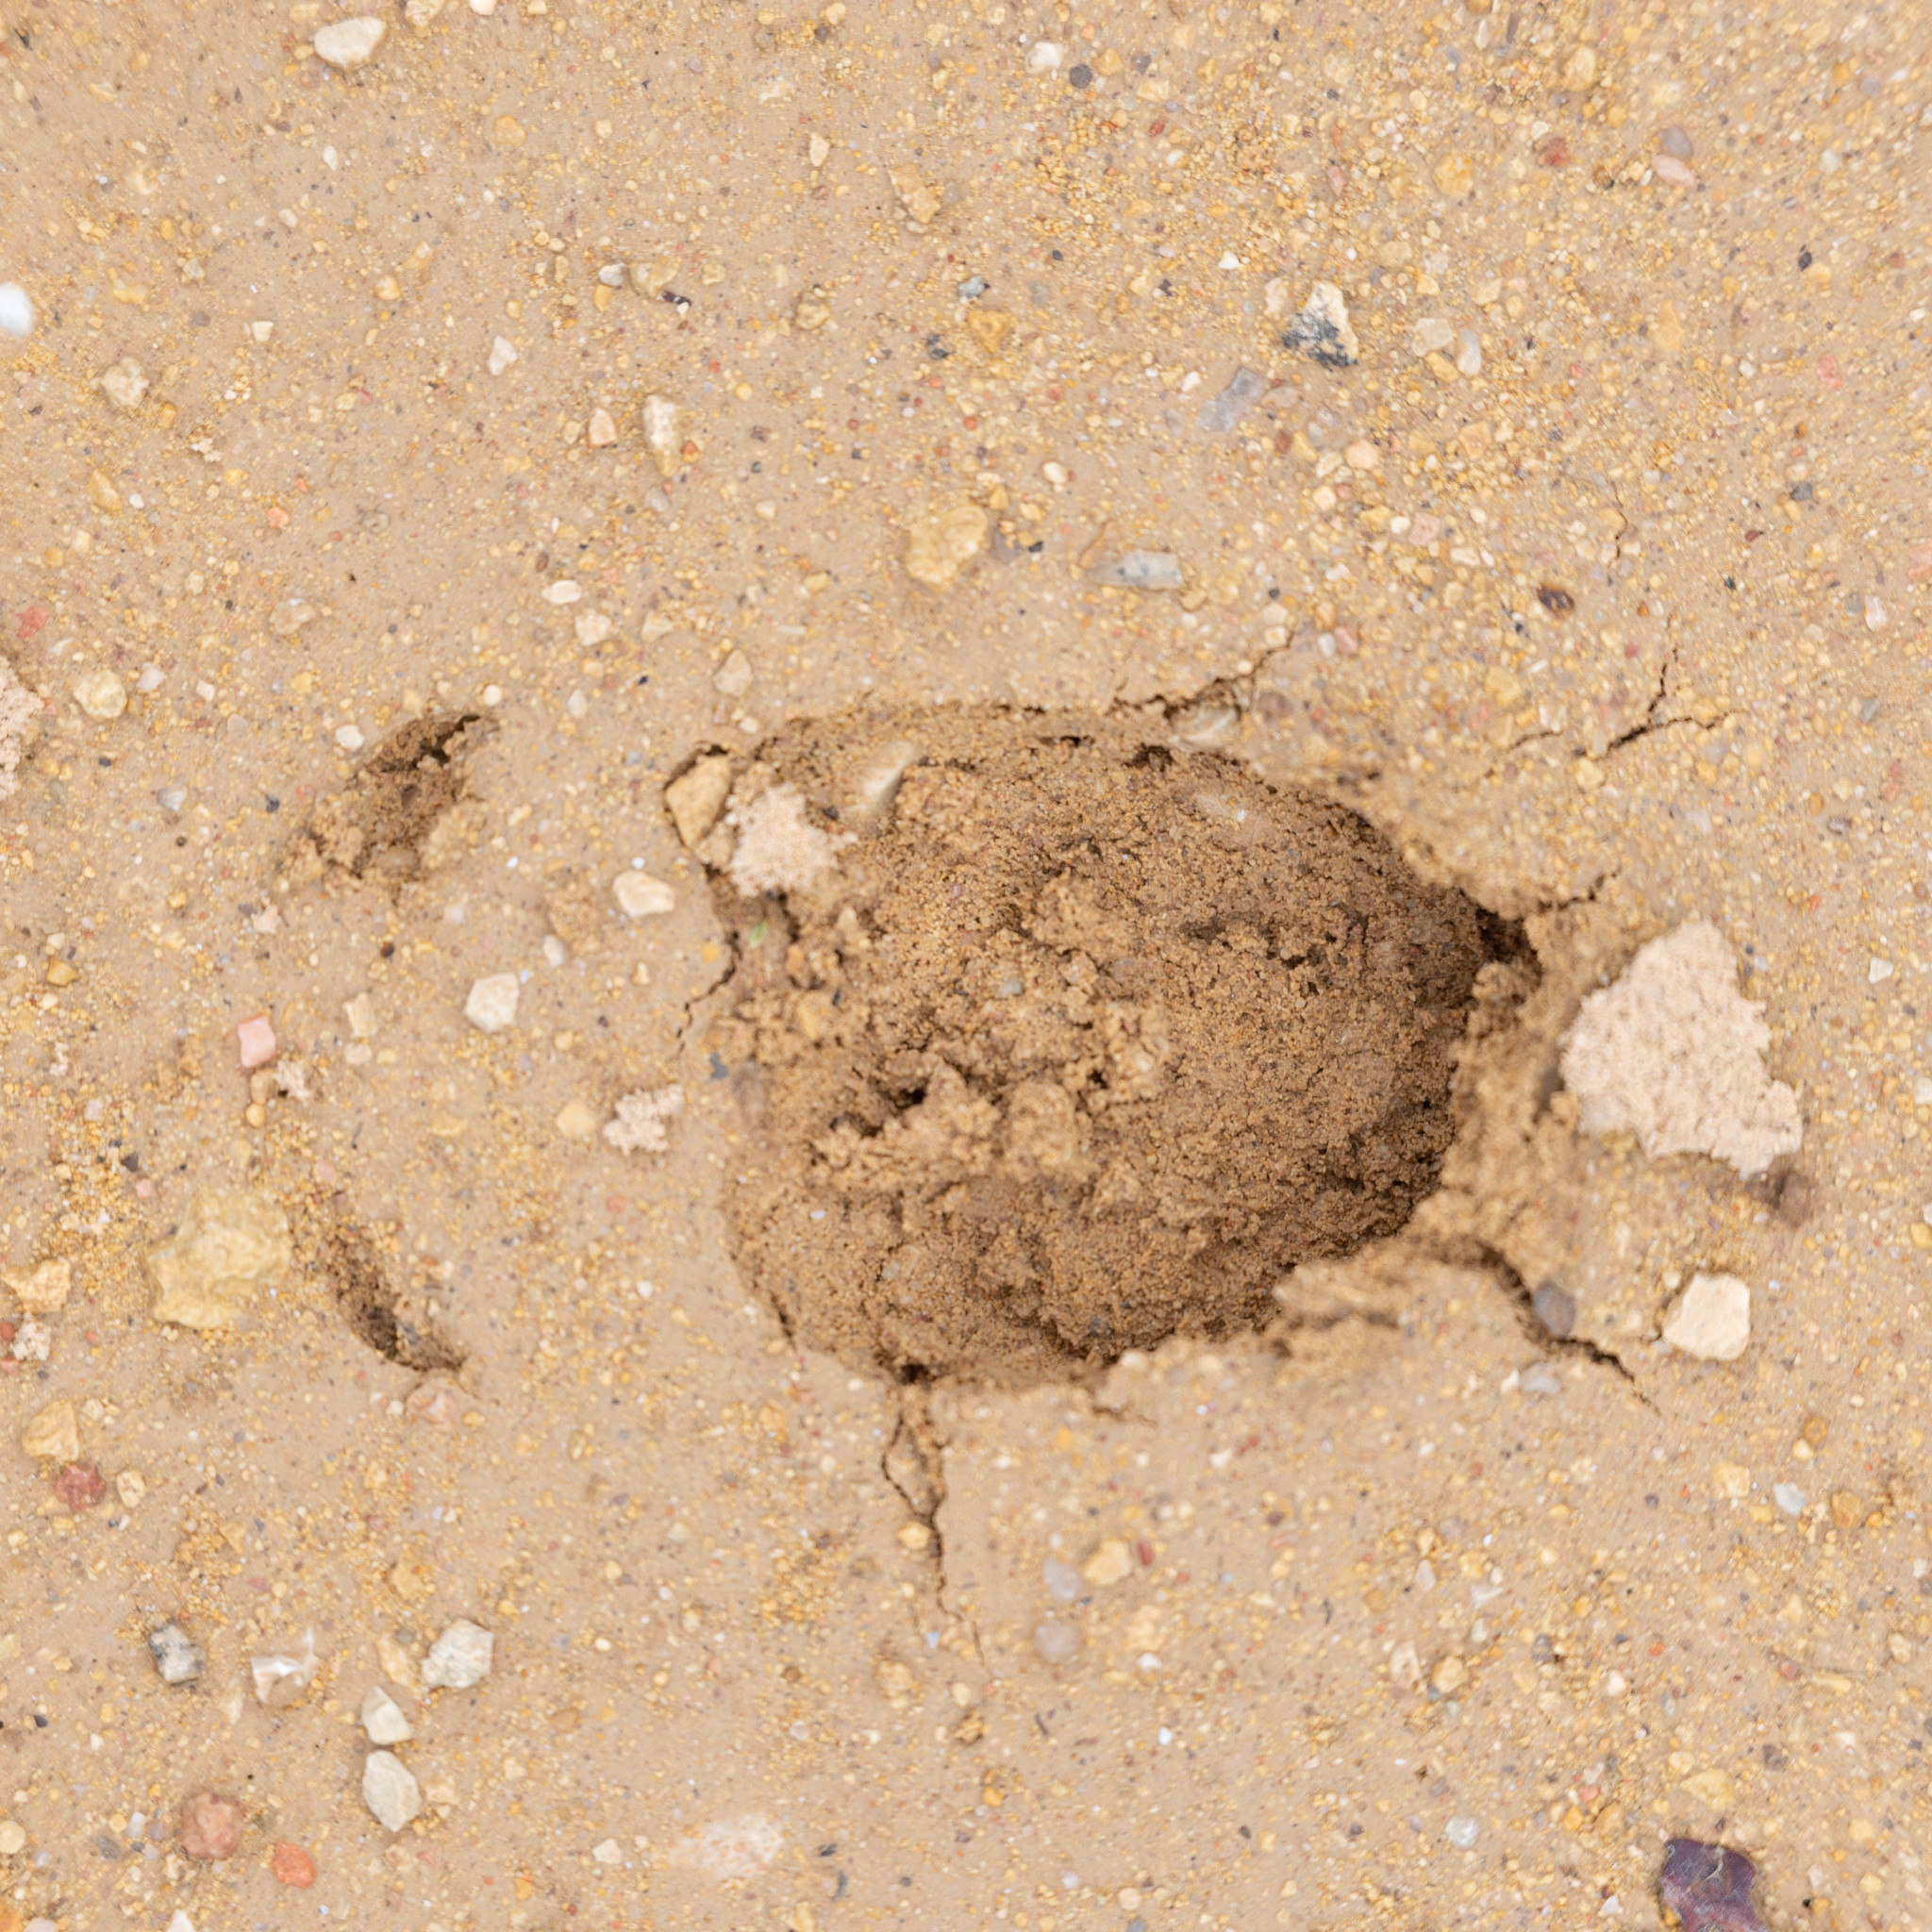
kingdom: Animalia
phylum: Chordata
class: Mammalia
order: Artiodactyla
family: Cervidae
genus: Capreolus
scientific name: Capreolus capreolus
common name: Western roe deer
